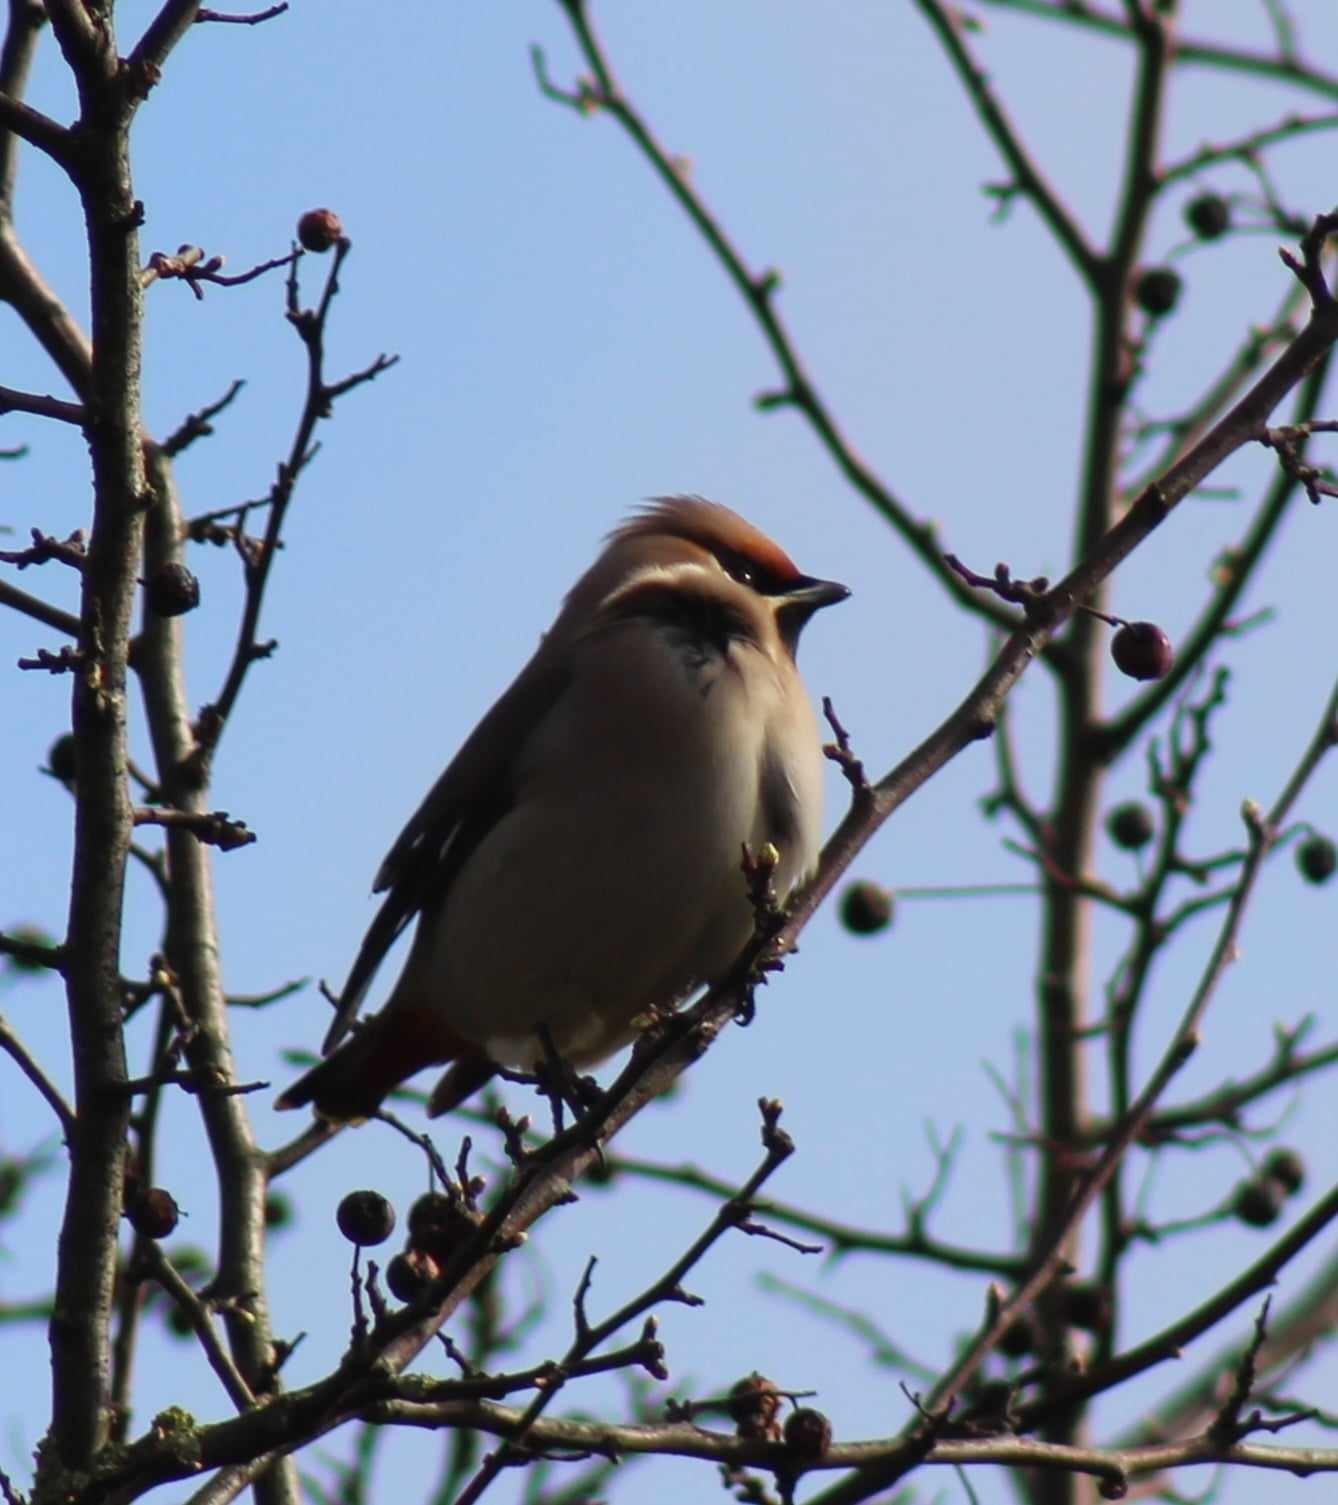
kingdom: Animalia
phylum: Chordata
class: Aves
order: Passeriformes
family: Bombycillidae
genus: Bombycilla
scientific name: Bombycilla garrulus
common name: Bohemian waxwing
